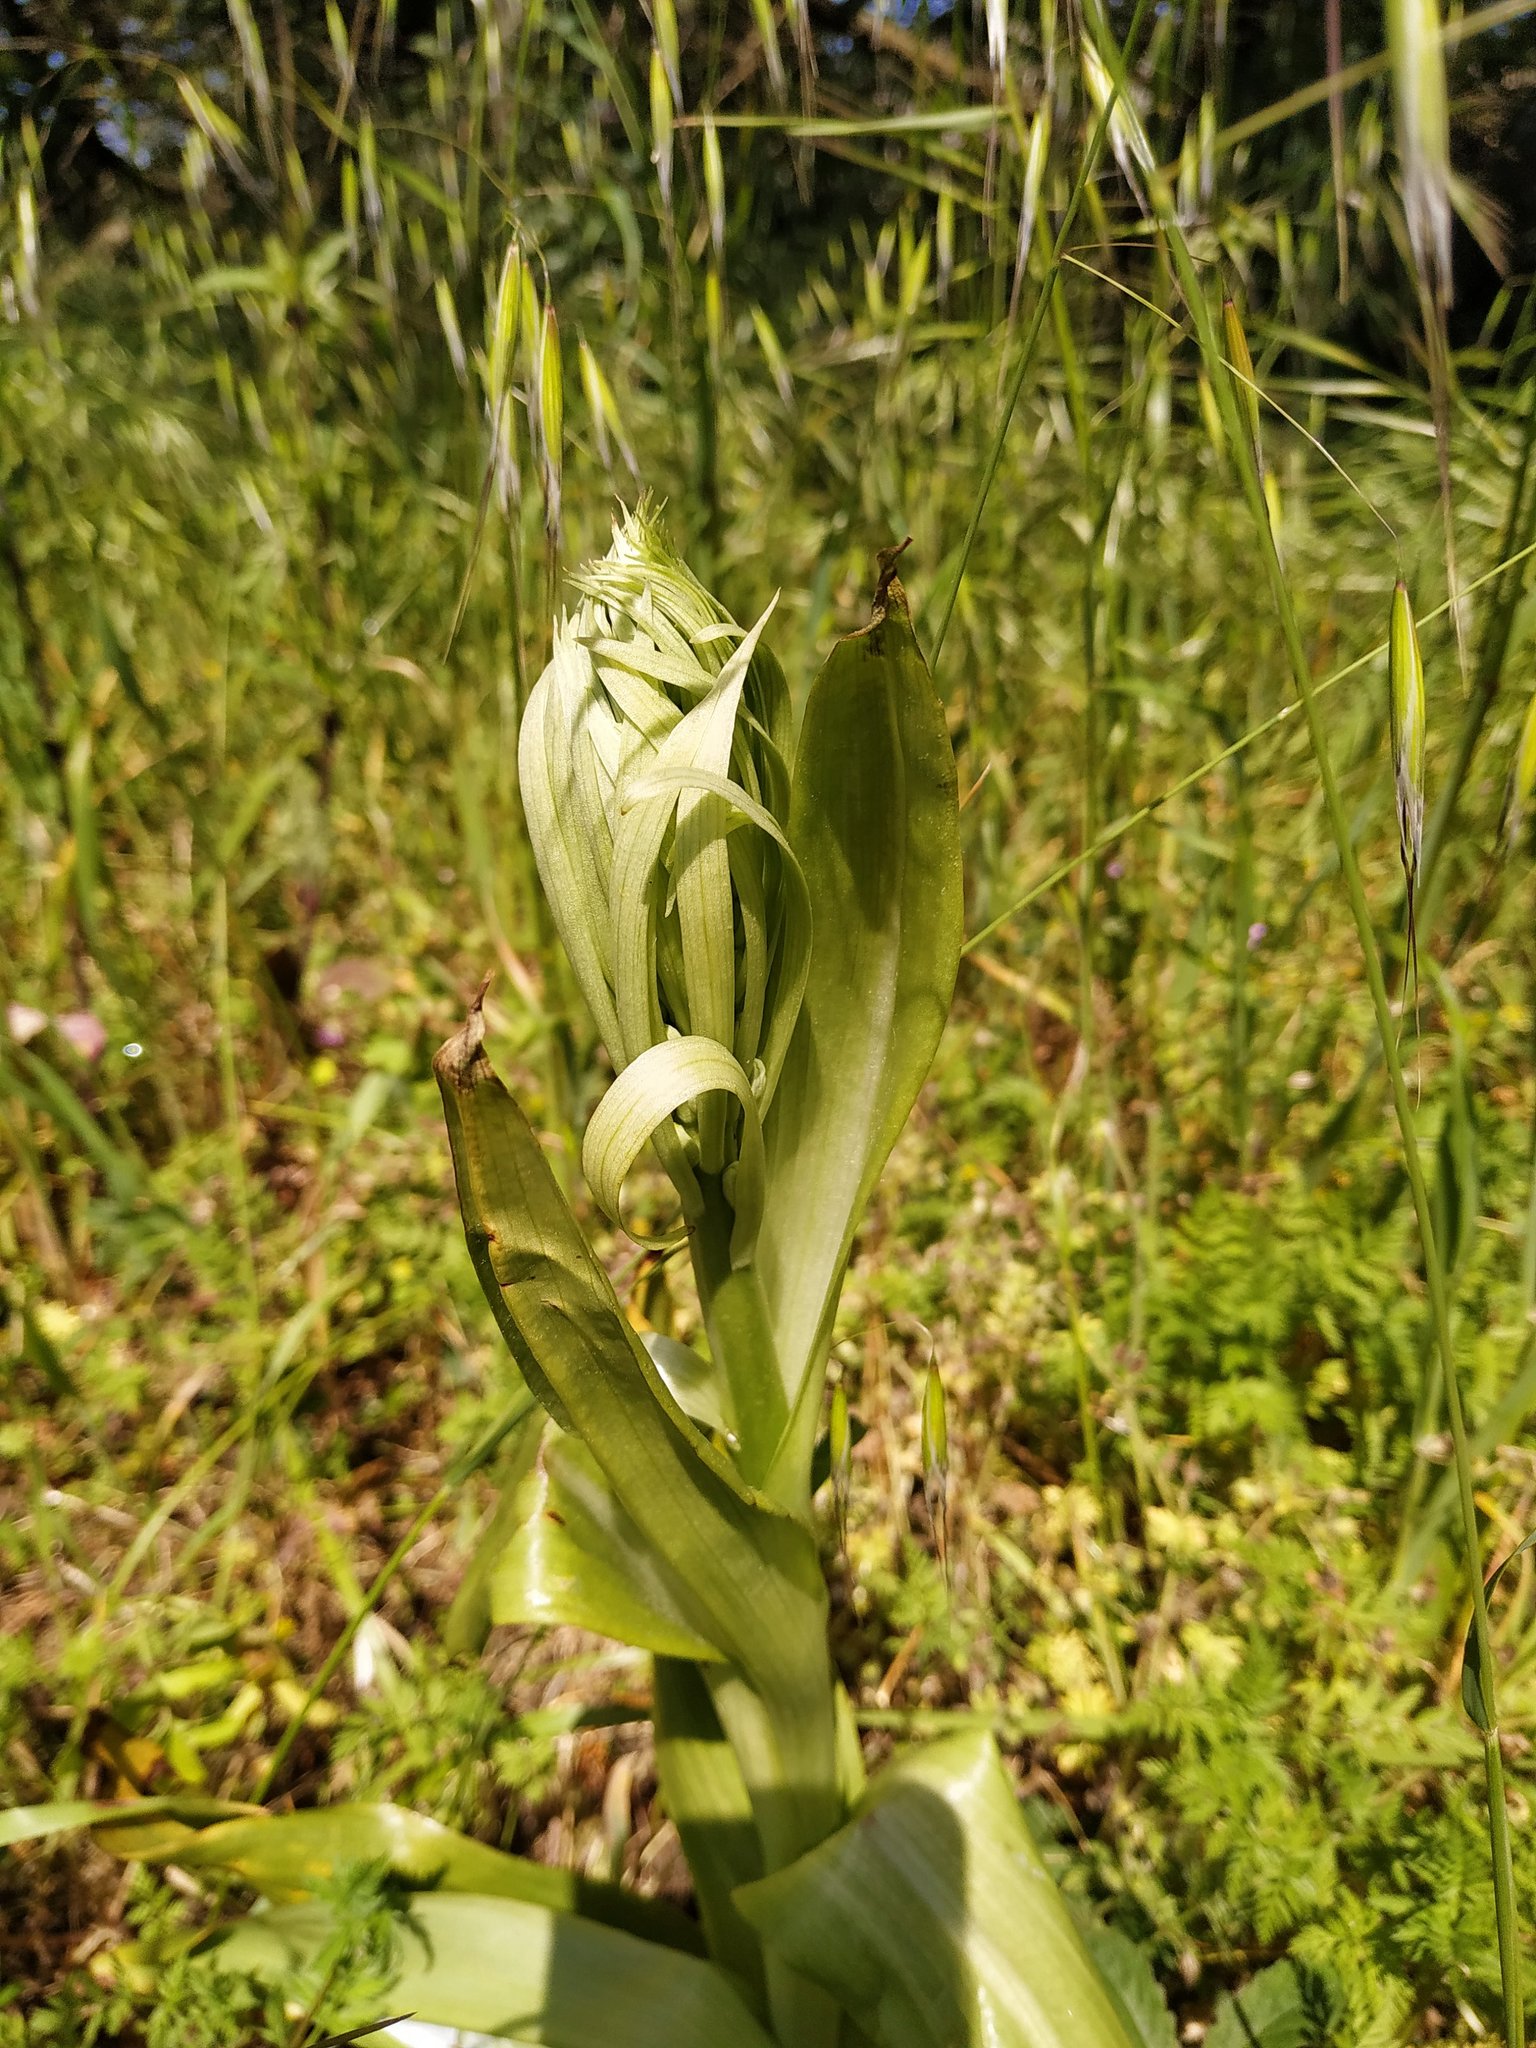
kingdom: Plantae
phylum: Tracheophyta
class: Liliopsida
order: Asparagales
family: Orchidaceae
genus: Himantoglossum
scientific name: Himantoglossum hircinum
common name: Lizard orchid
